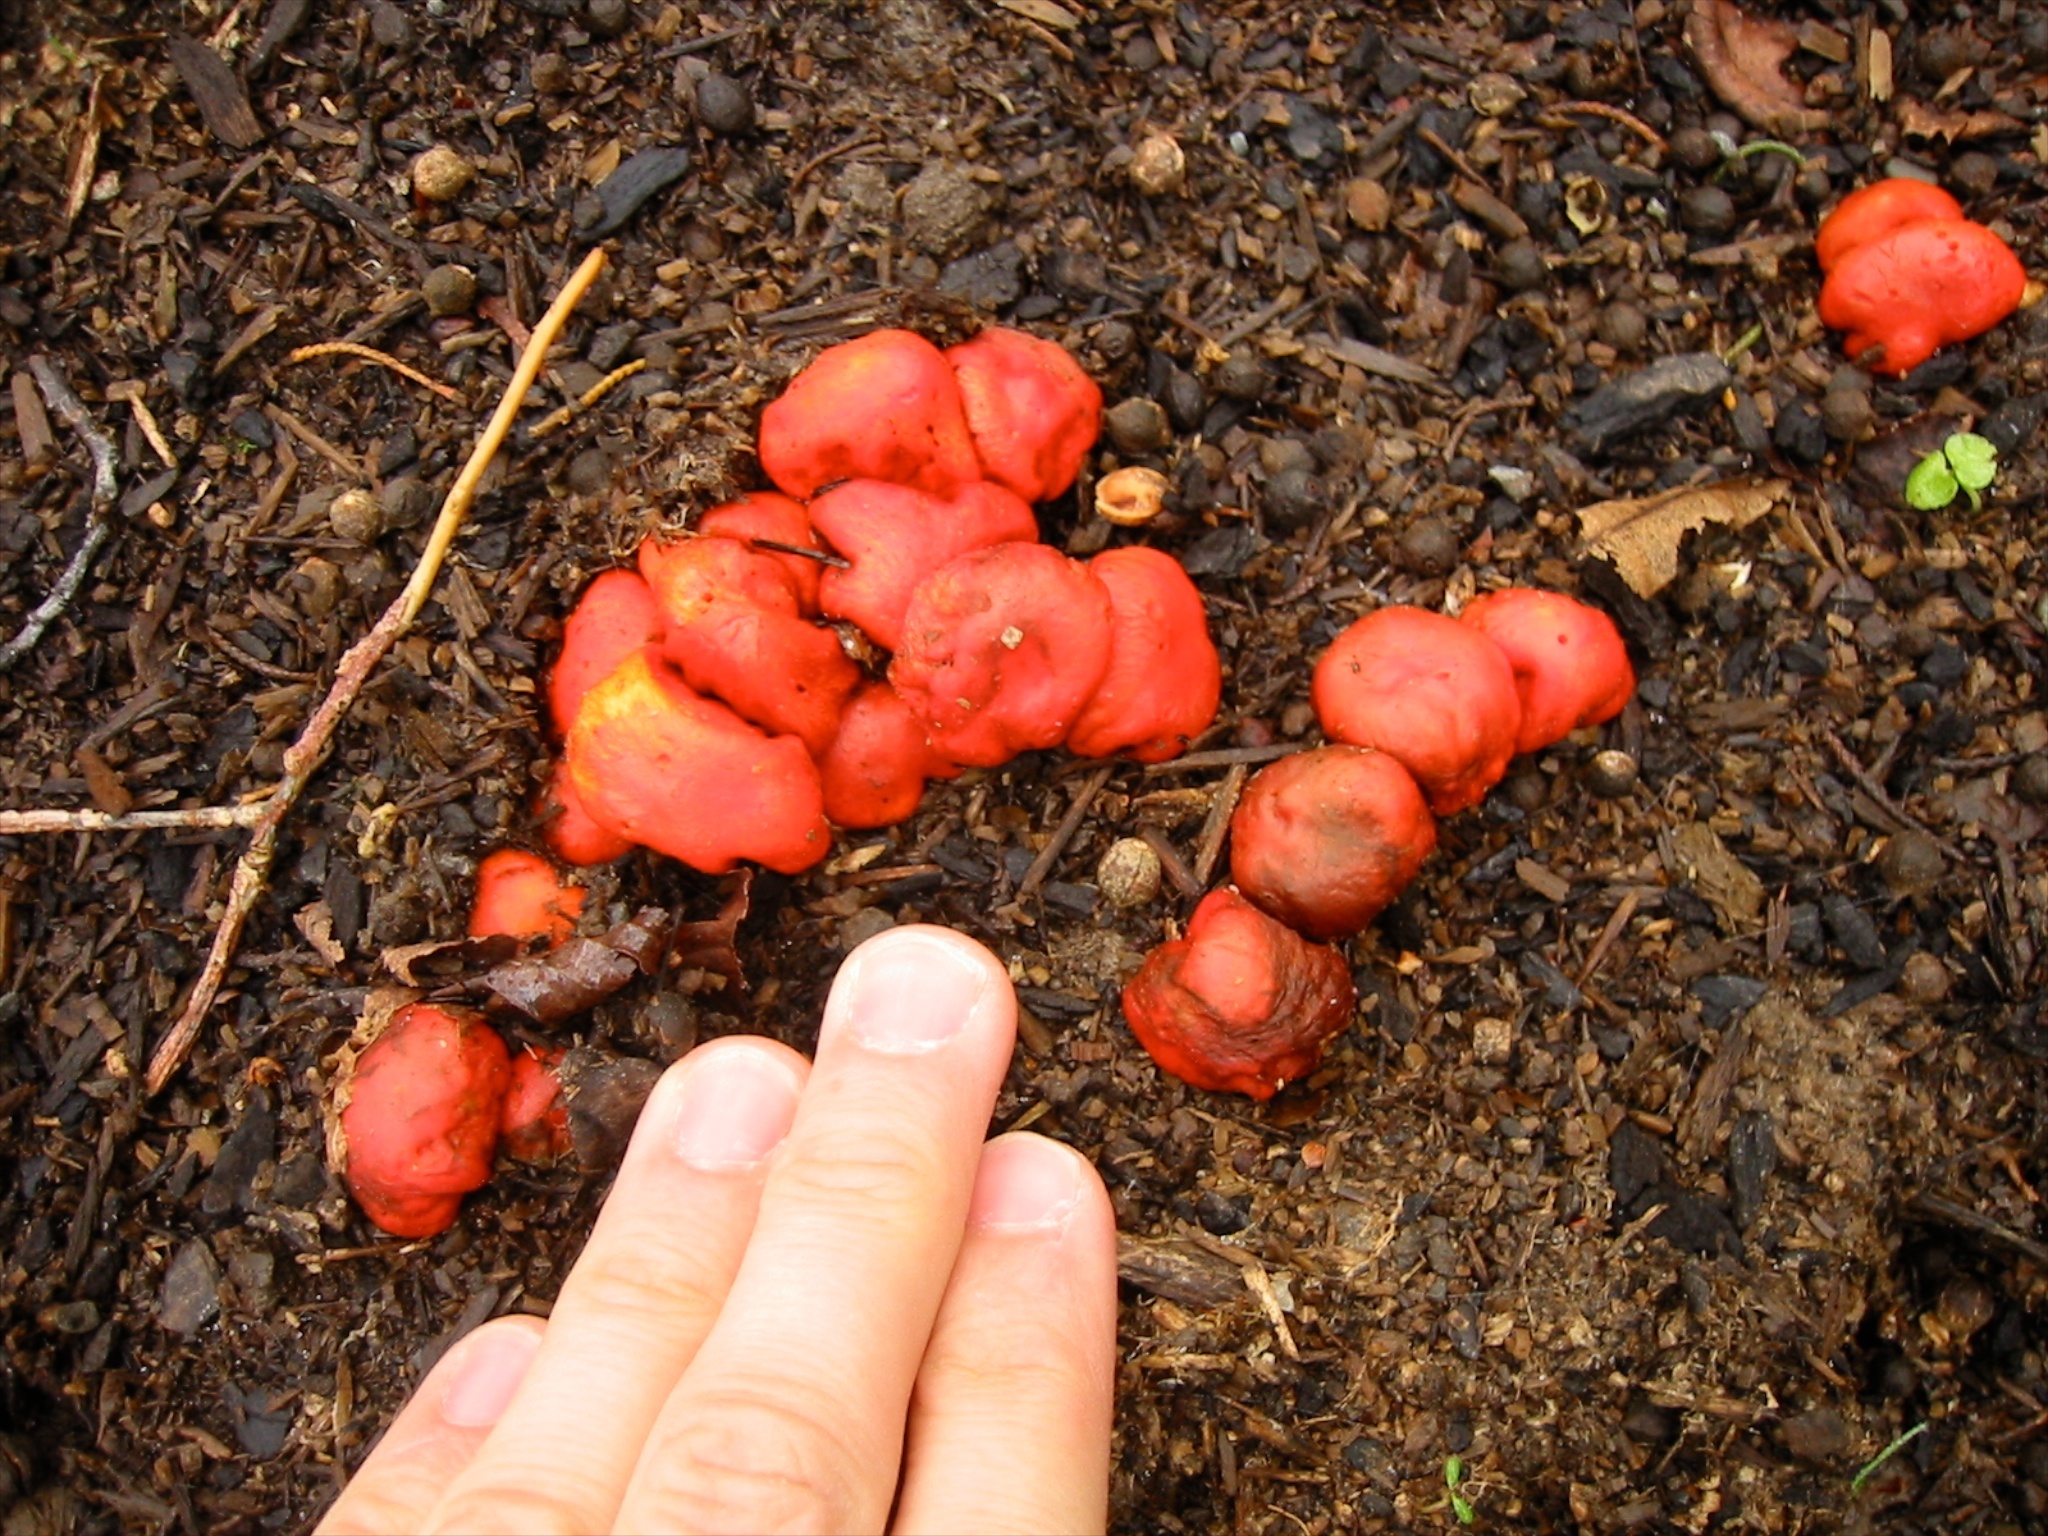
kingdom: Fungi
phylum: Basidiomycota
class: Agaricomycetes
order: Agaricales
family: Strophariaceae
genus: Leratiomyces
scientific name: Leratiomyces erythrocephalus
